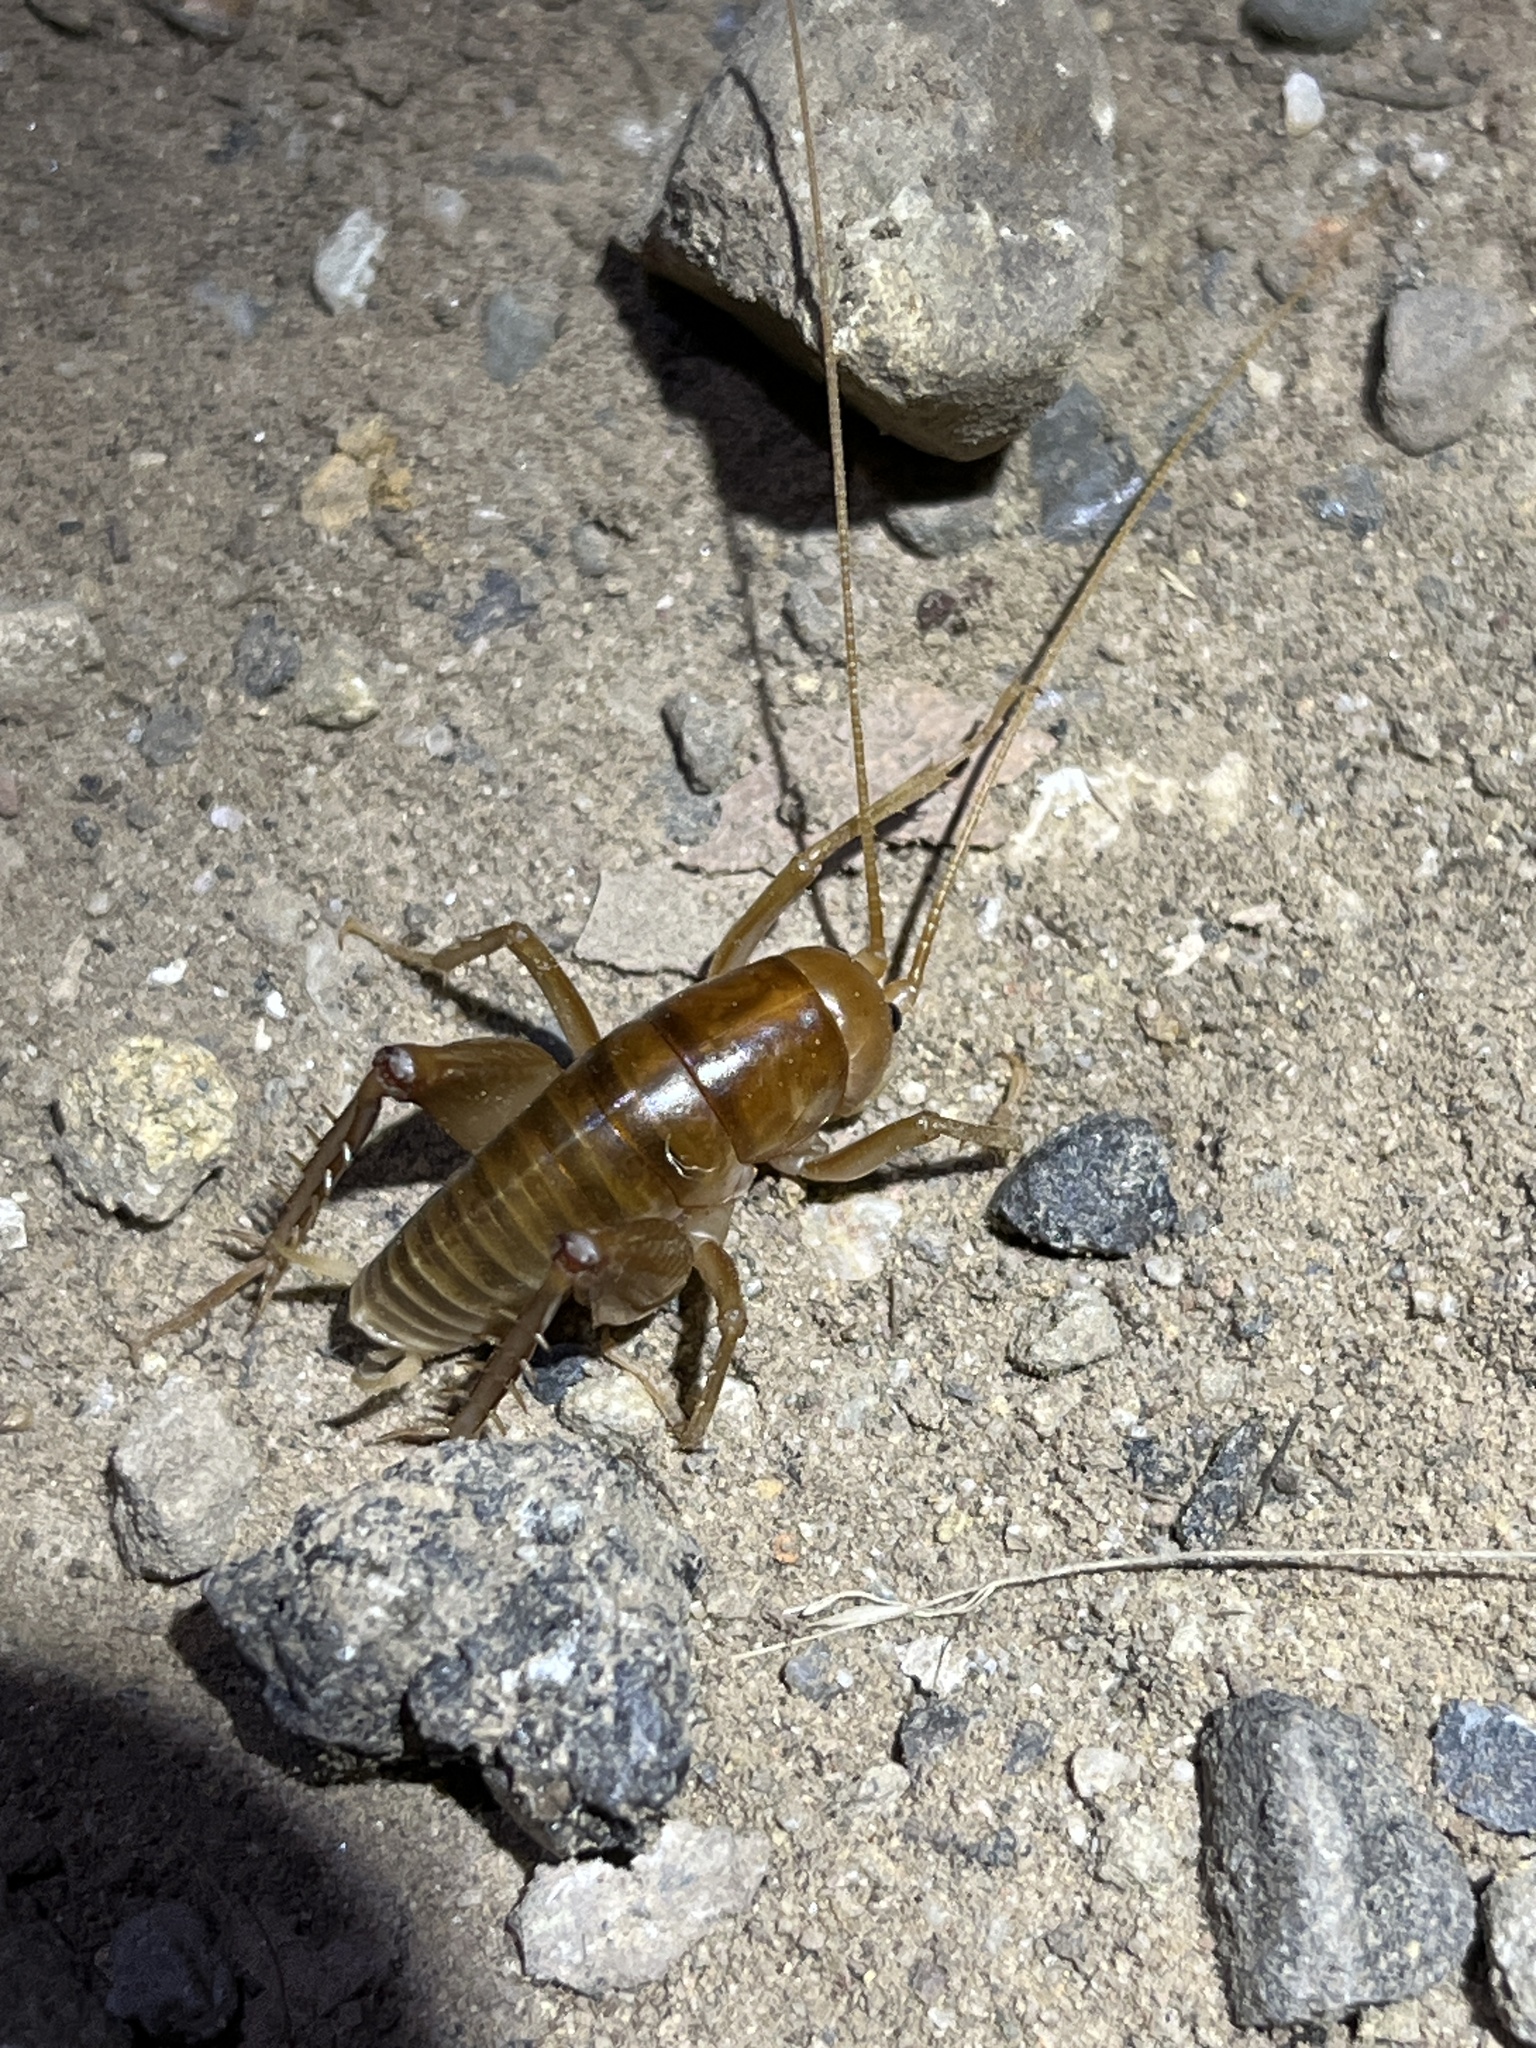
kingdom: Animalia
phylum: Arthropoda
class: Insecta
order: Orthoptera
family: Rhaphidophoridae
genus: Ceuthophilus
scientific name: Ceuthophilus californianus
